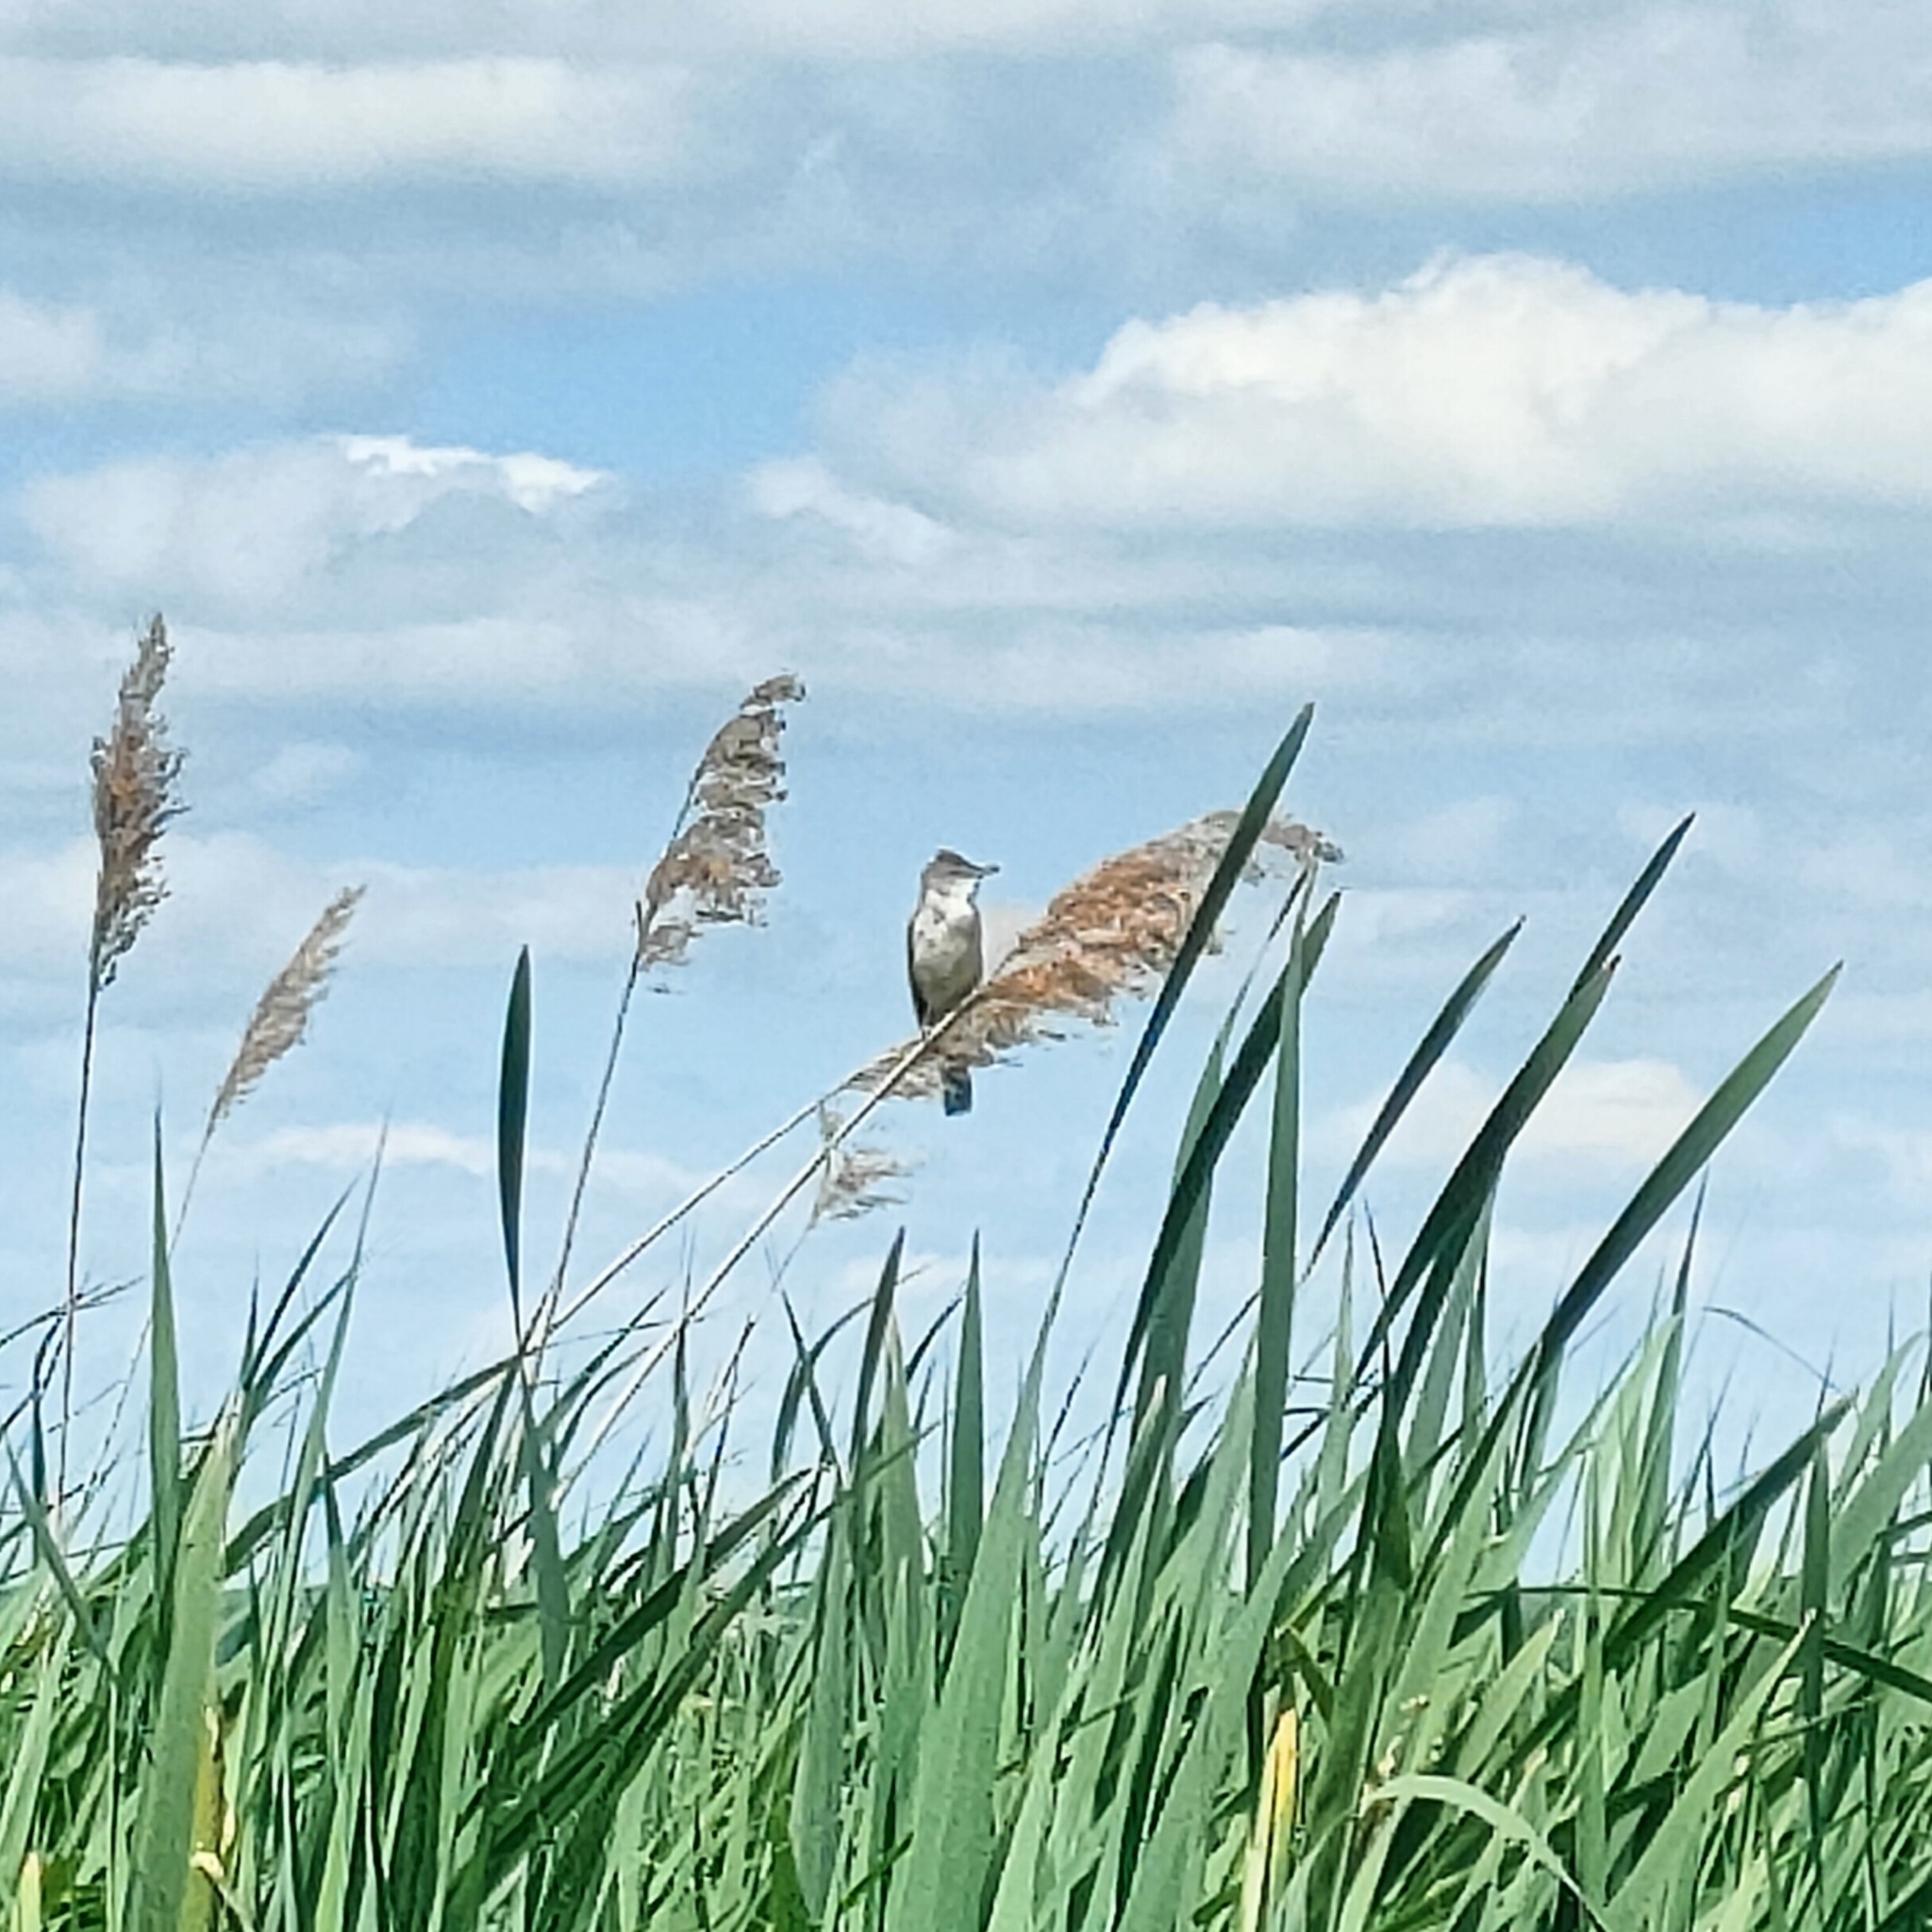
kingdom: Animalia
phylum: Chordata
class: Aves
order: Passeriformes
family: Acrocephalidae
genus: Acrocephalus
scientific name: Acrocephalus arundinaceus
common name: Great reed warbler
